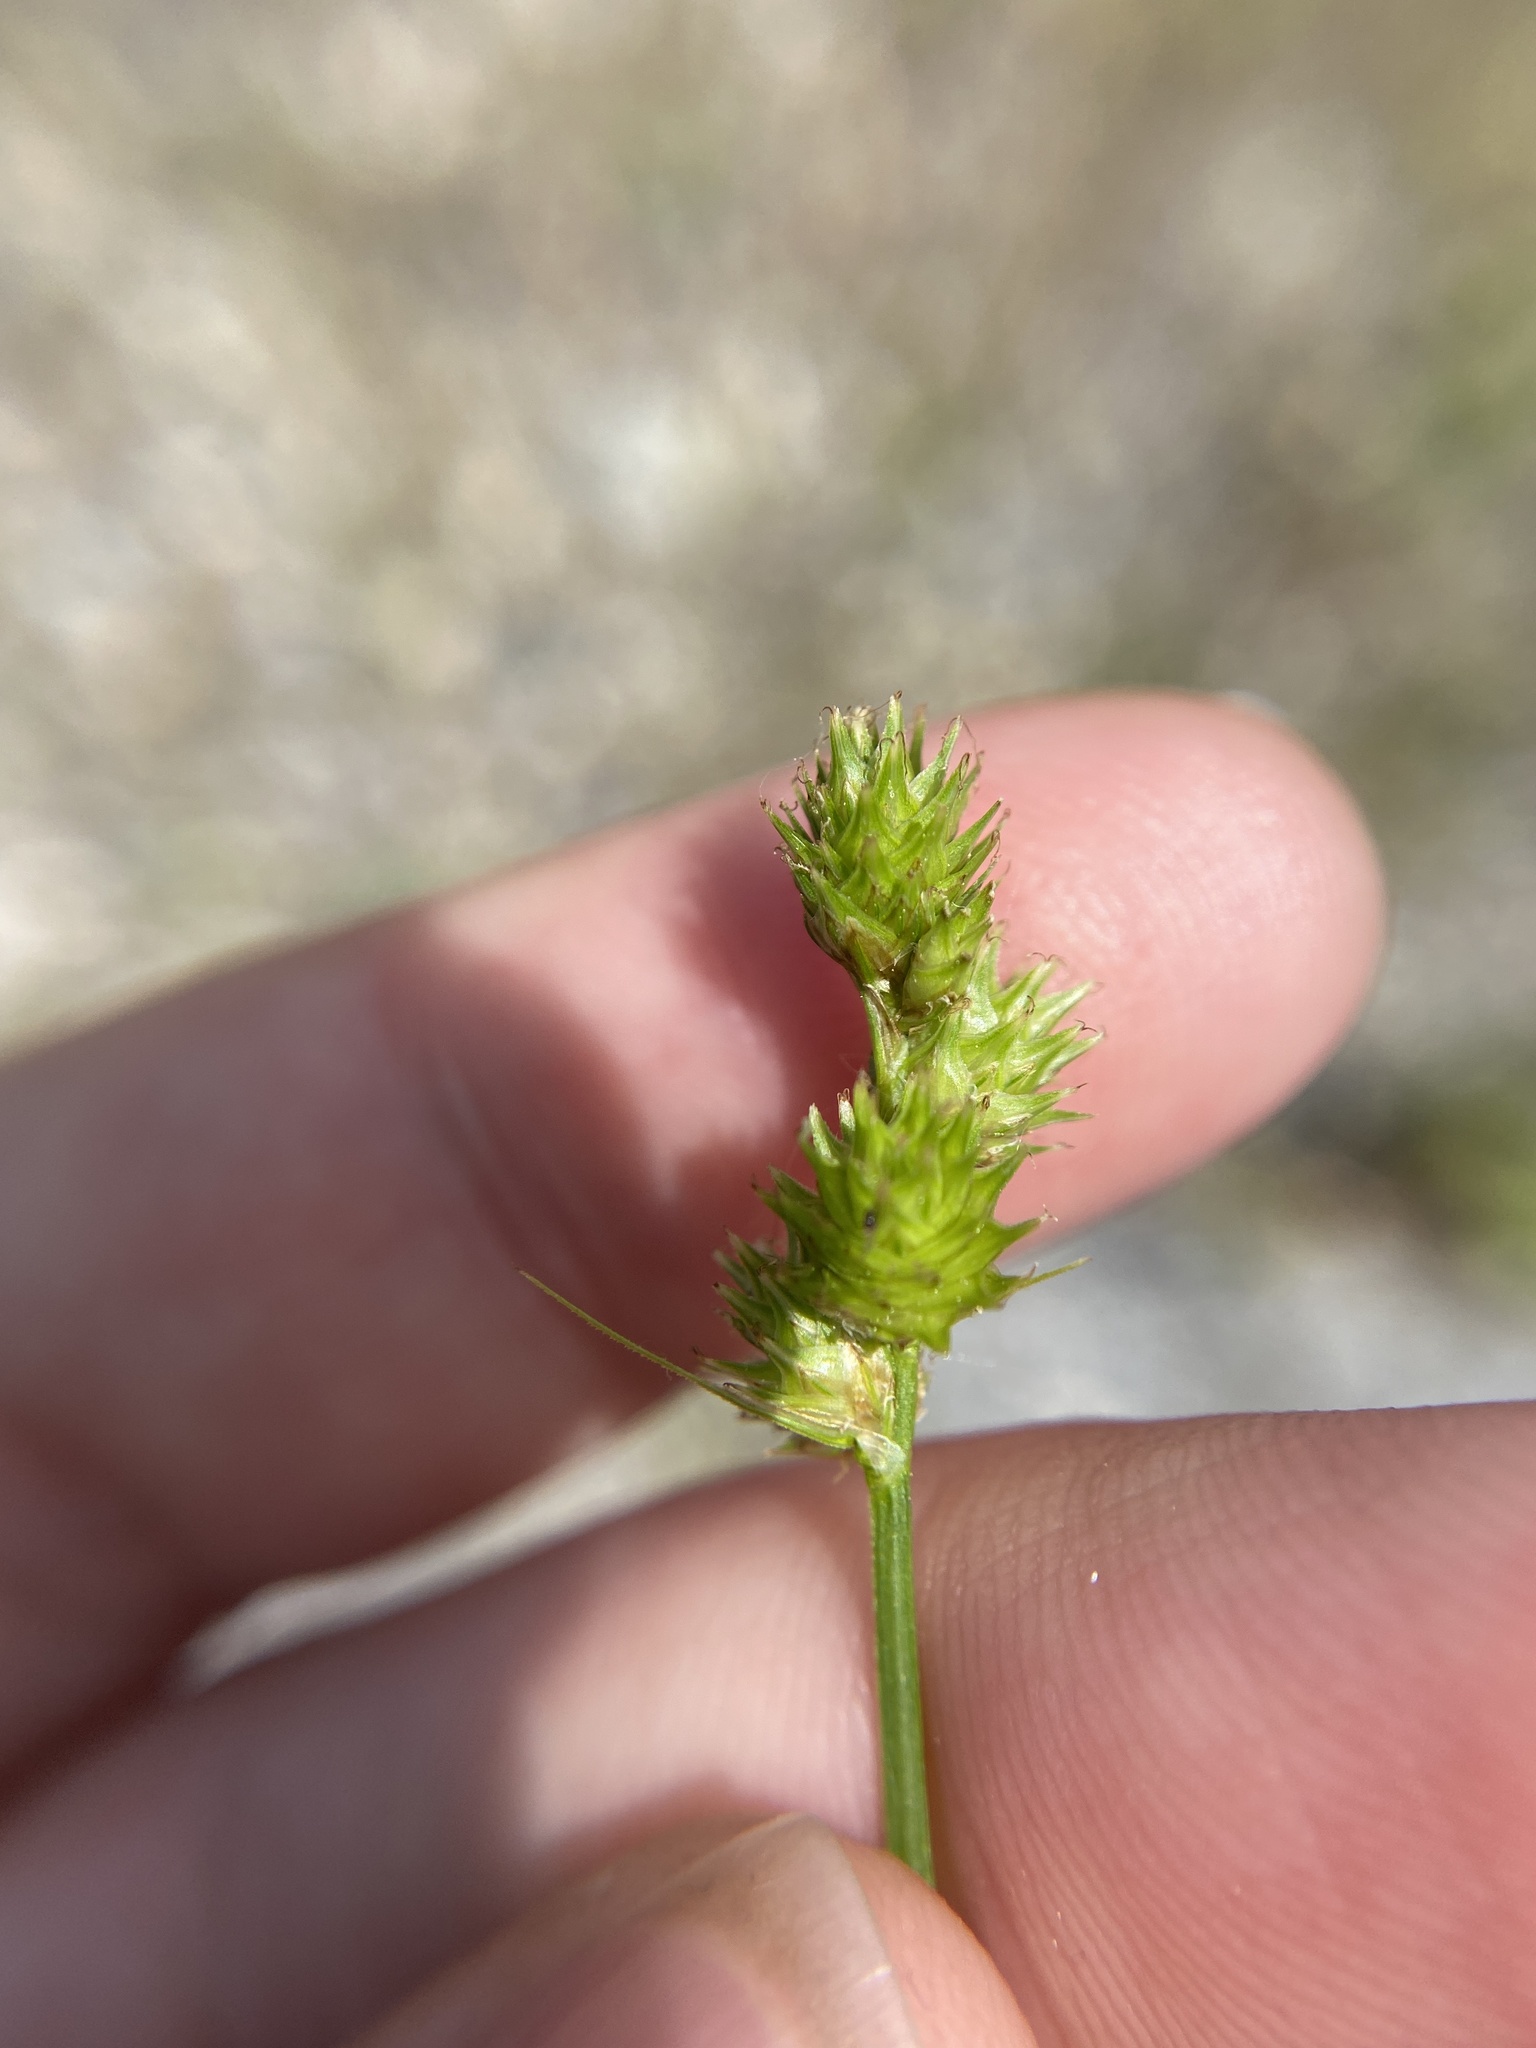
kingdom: Plantae
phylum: Tracheophyta
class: Liliopsida
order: Poales
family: Cyperaceae
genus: Carex
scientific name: Carex molesta
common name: Troublesome sedge
